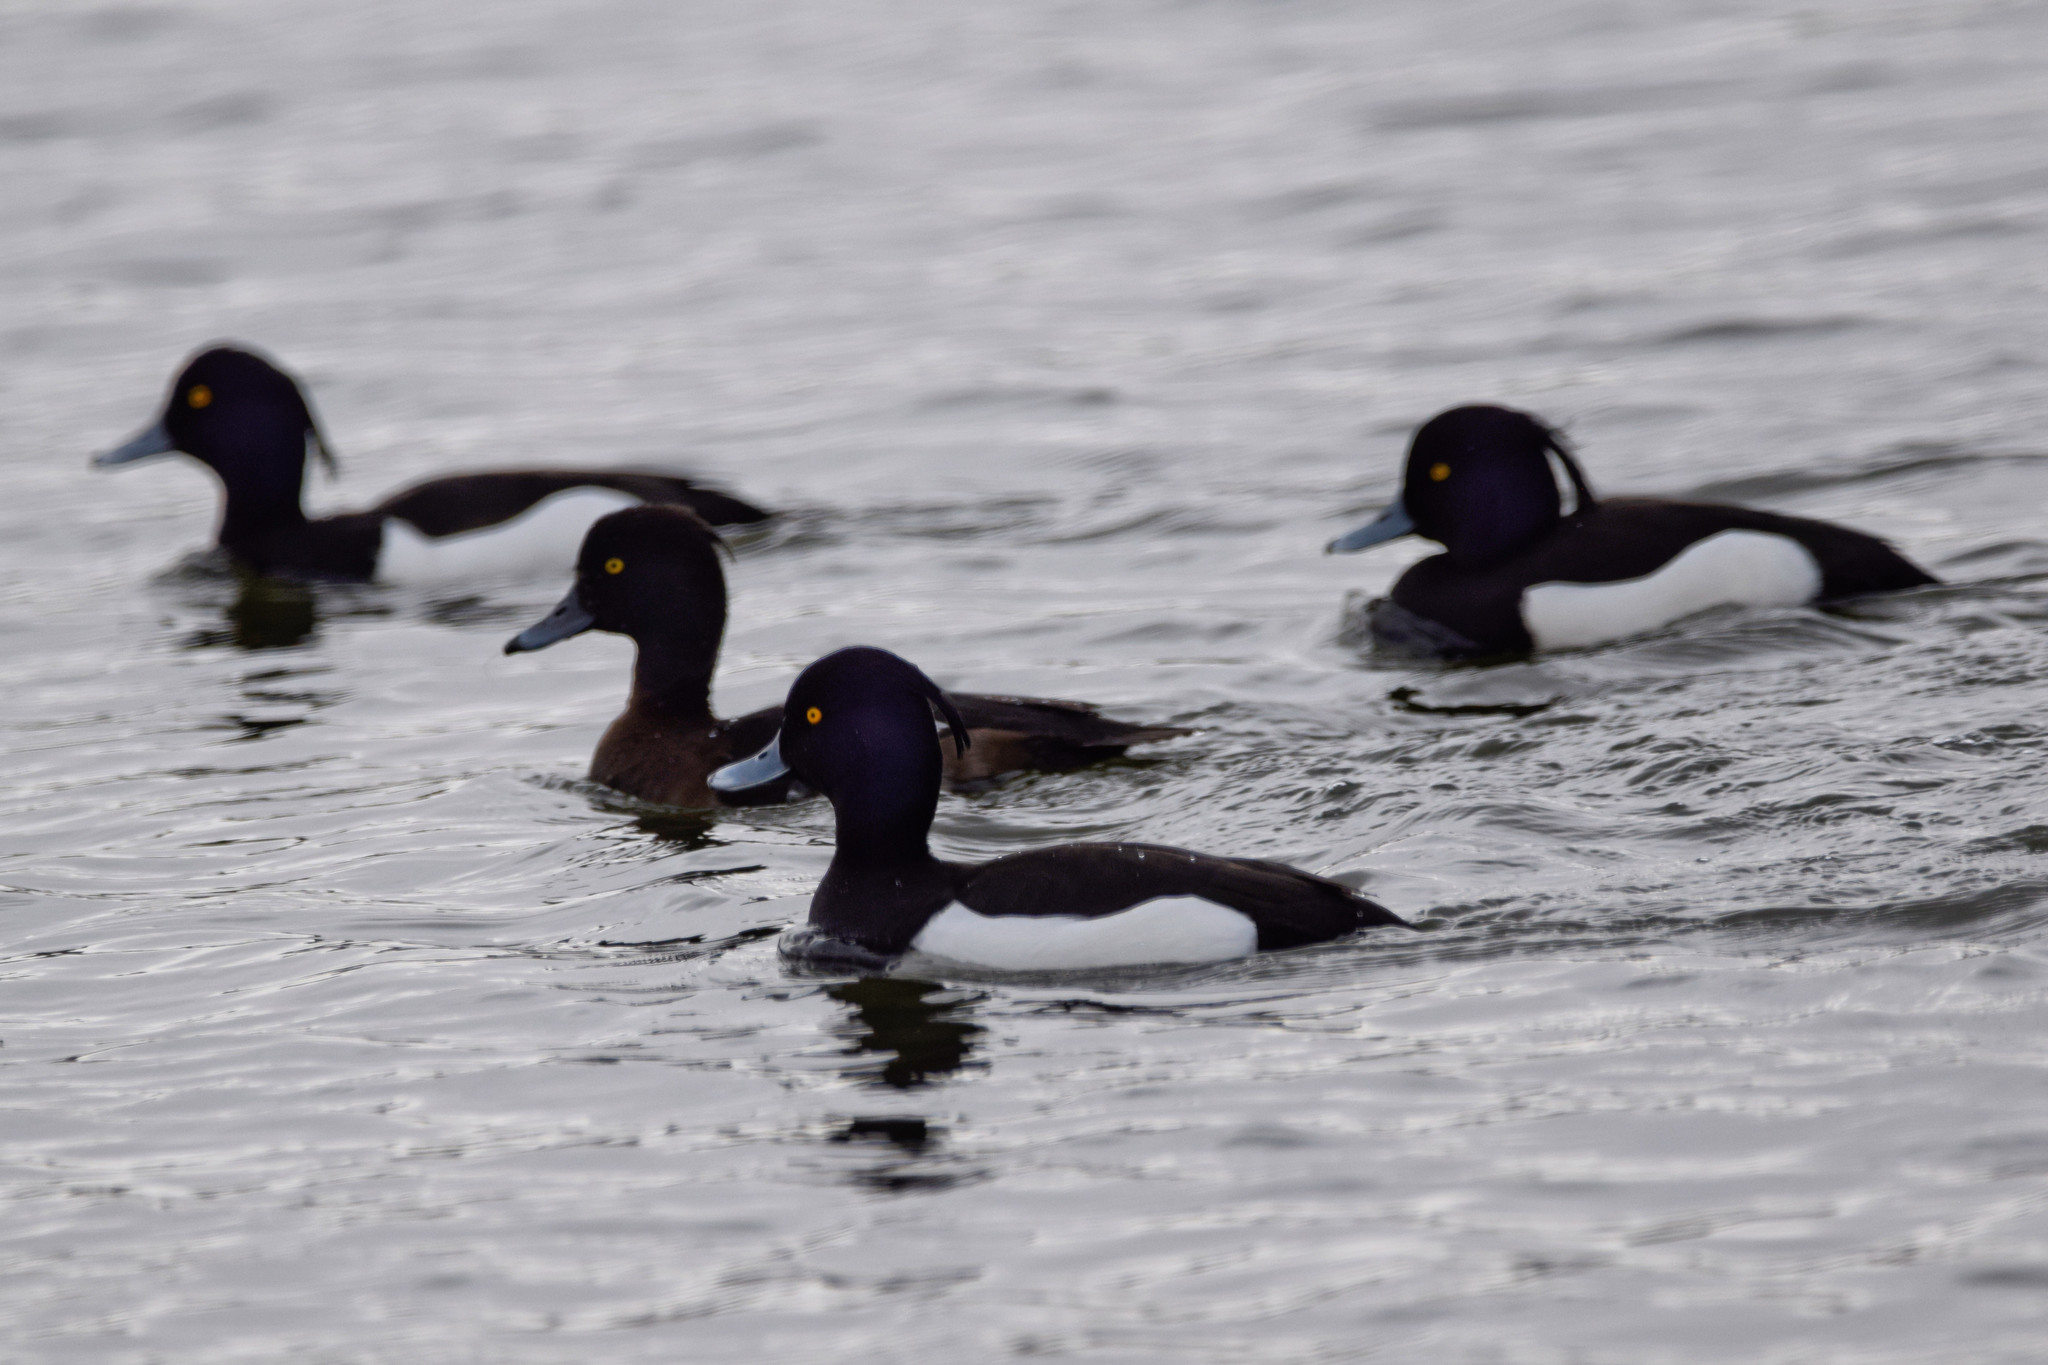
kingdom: Animalia
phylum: Chordata
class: Aves
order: Anseriformes
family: Anatidae
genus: Aythya
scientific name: Aythya fuligula
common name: Tufted duck
